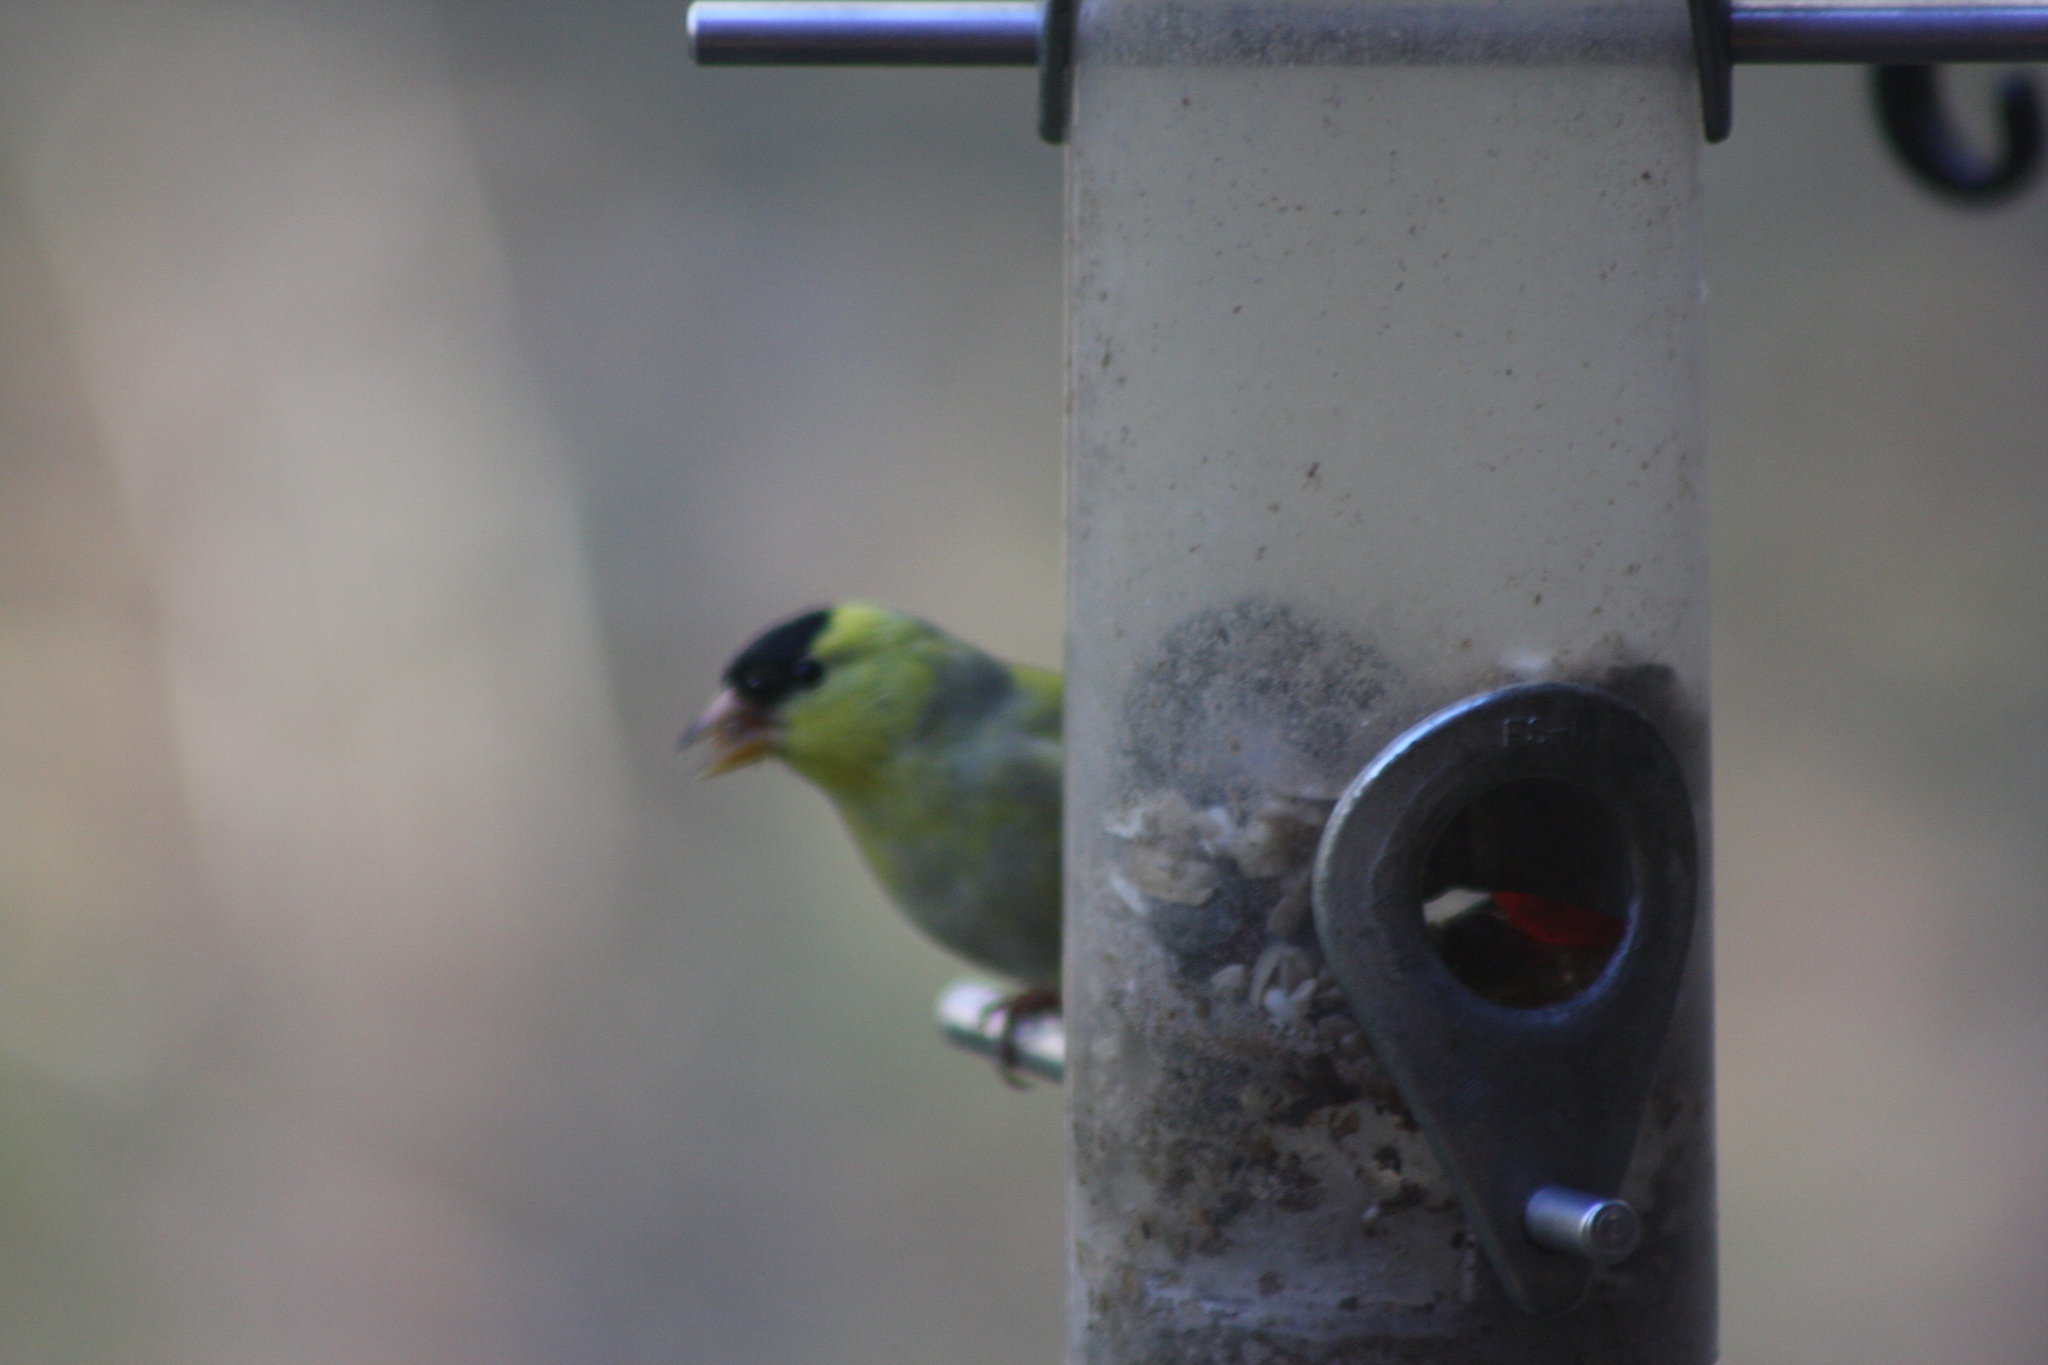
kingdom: Animalia
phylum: Chordata
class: Aves
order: Passeriformes
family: Fringillidae
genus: Spinus
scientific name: Spinus tristis
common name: American goldfinch
